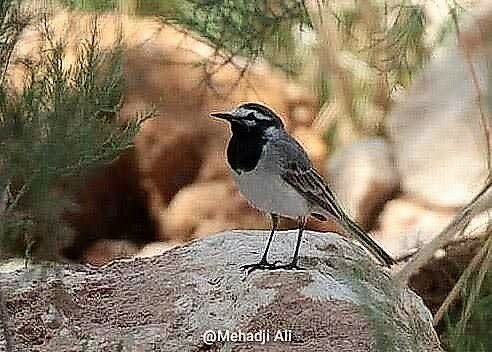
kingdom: Animalia
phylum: Chordata
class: Aves
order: Passeriformes
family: Motacillidae
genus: Motacilla
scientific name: Motacilla alba
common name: White wagtail
